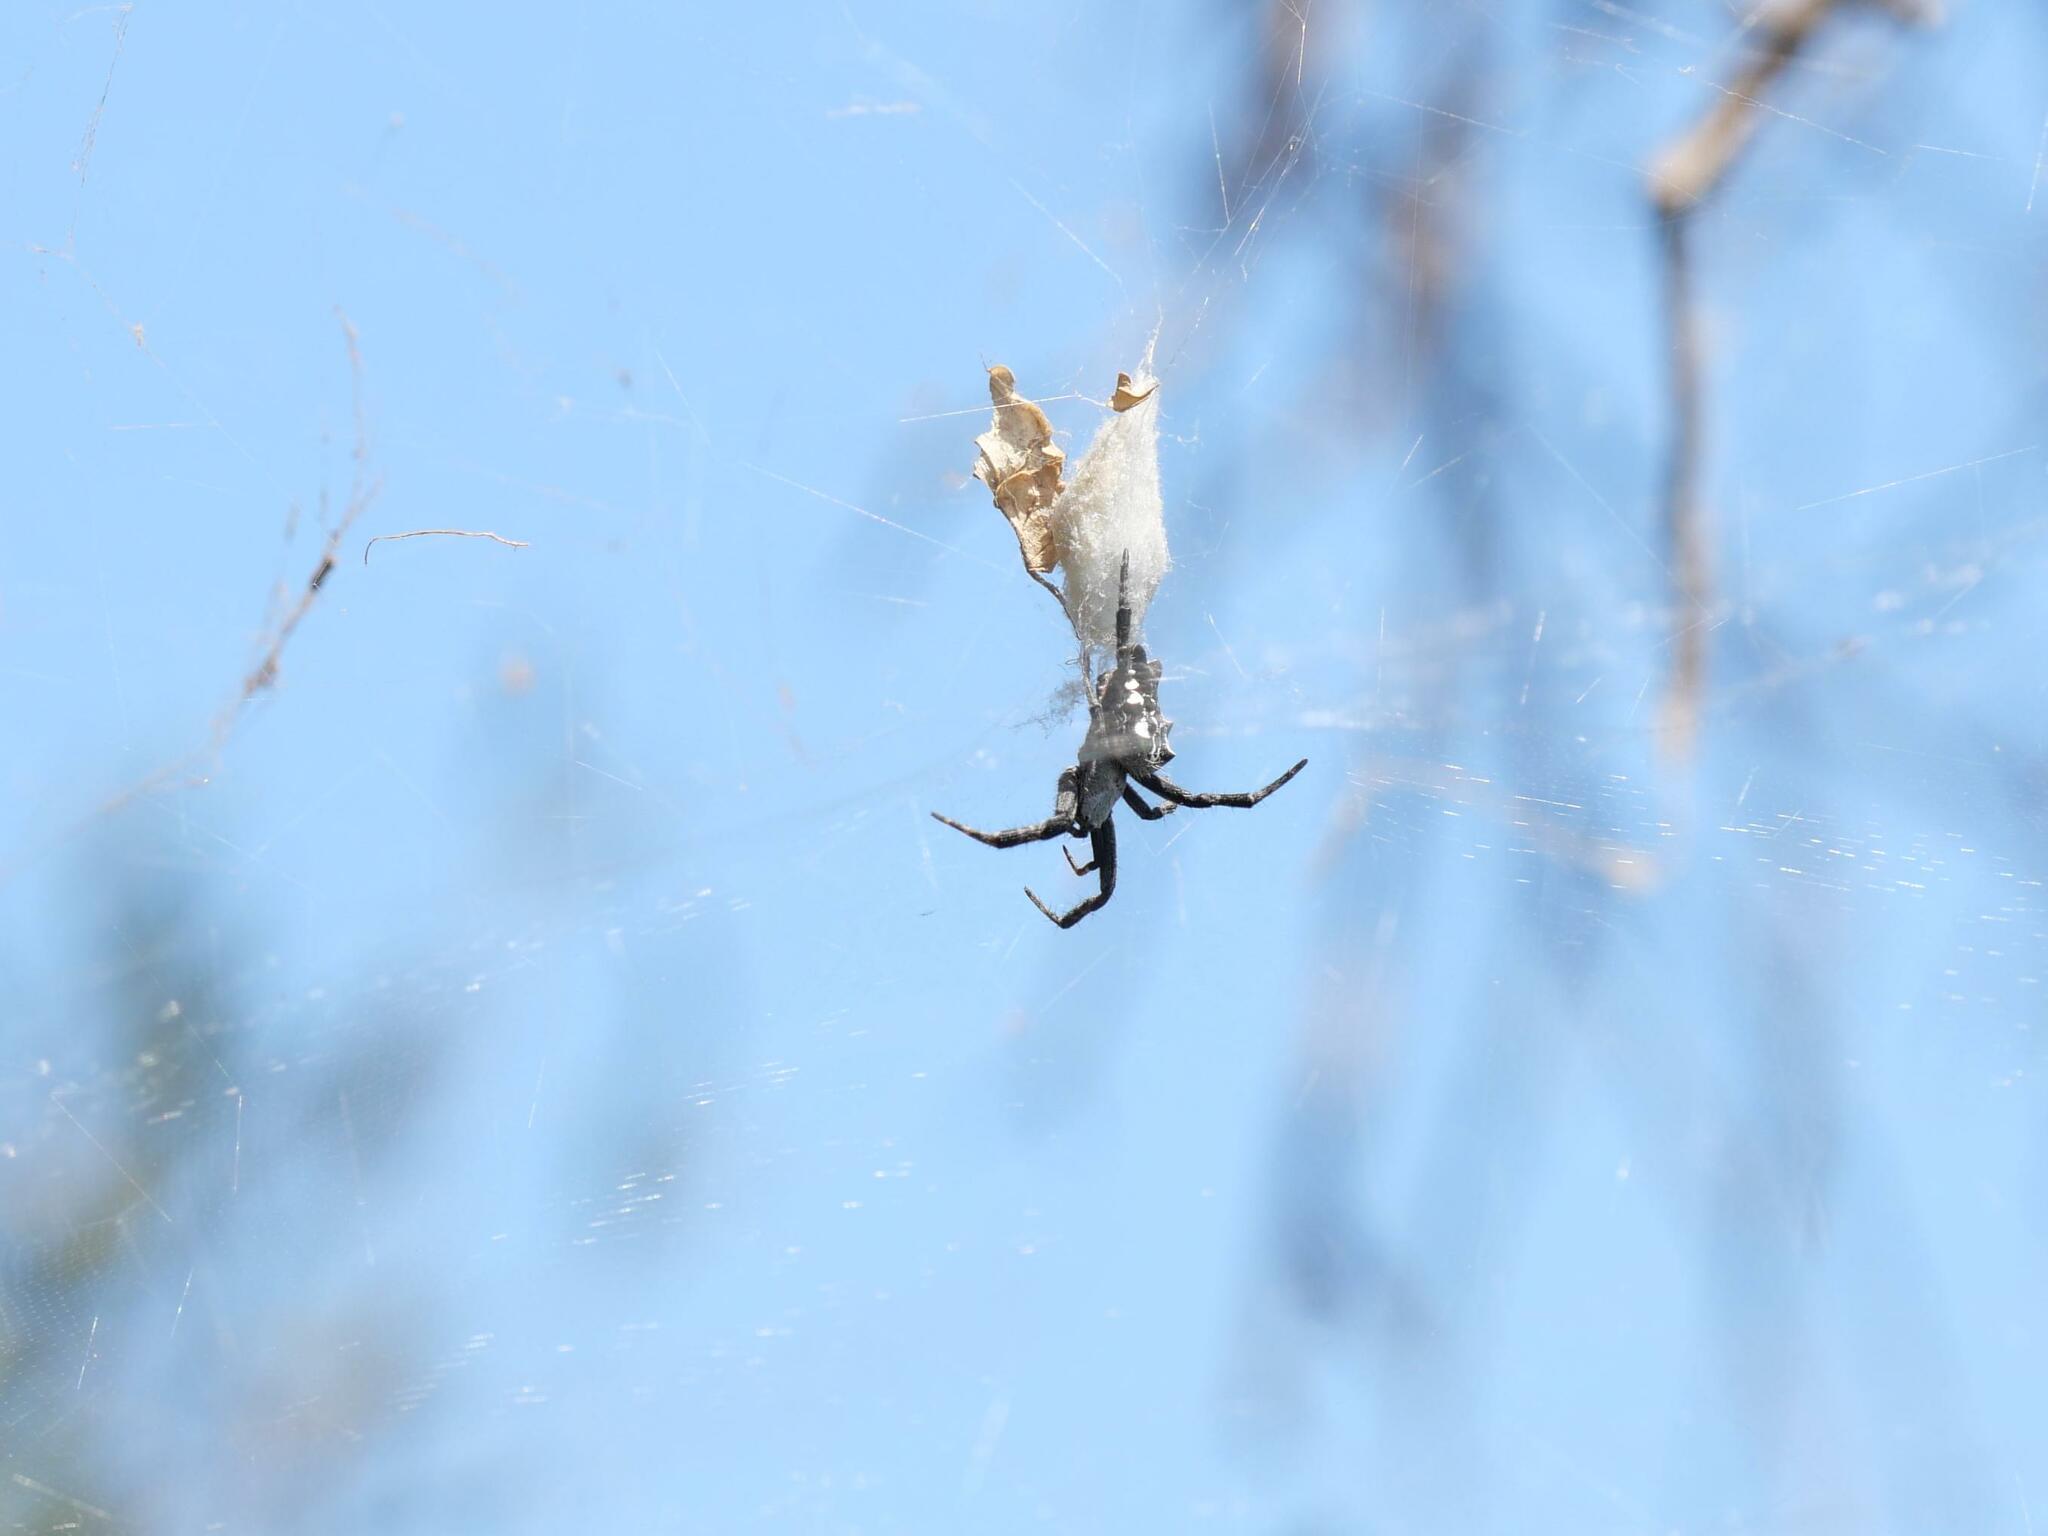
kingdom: Animalia
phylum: Arthropoda
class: Arachnida
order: Araneae
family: Araneidae
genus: Cyrtophora
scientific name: Cyrtophora citricola
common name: Orb weavers
